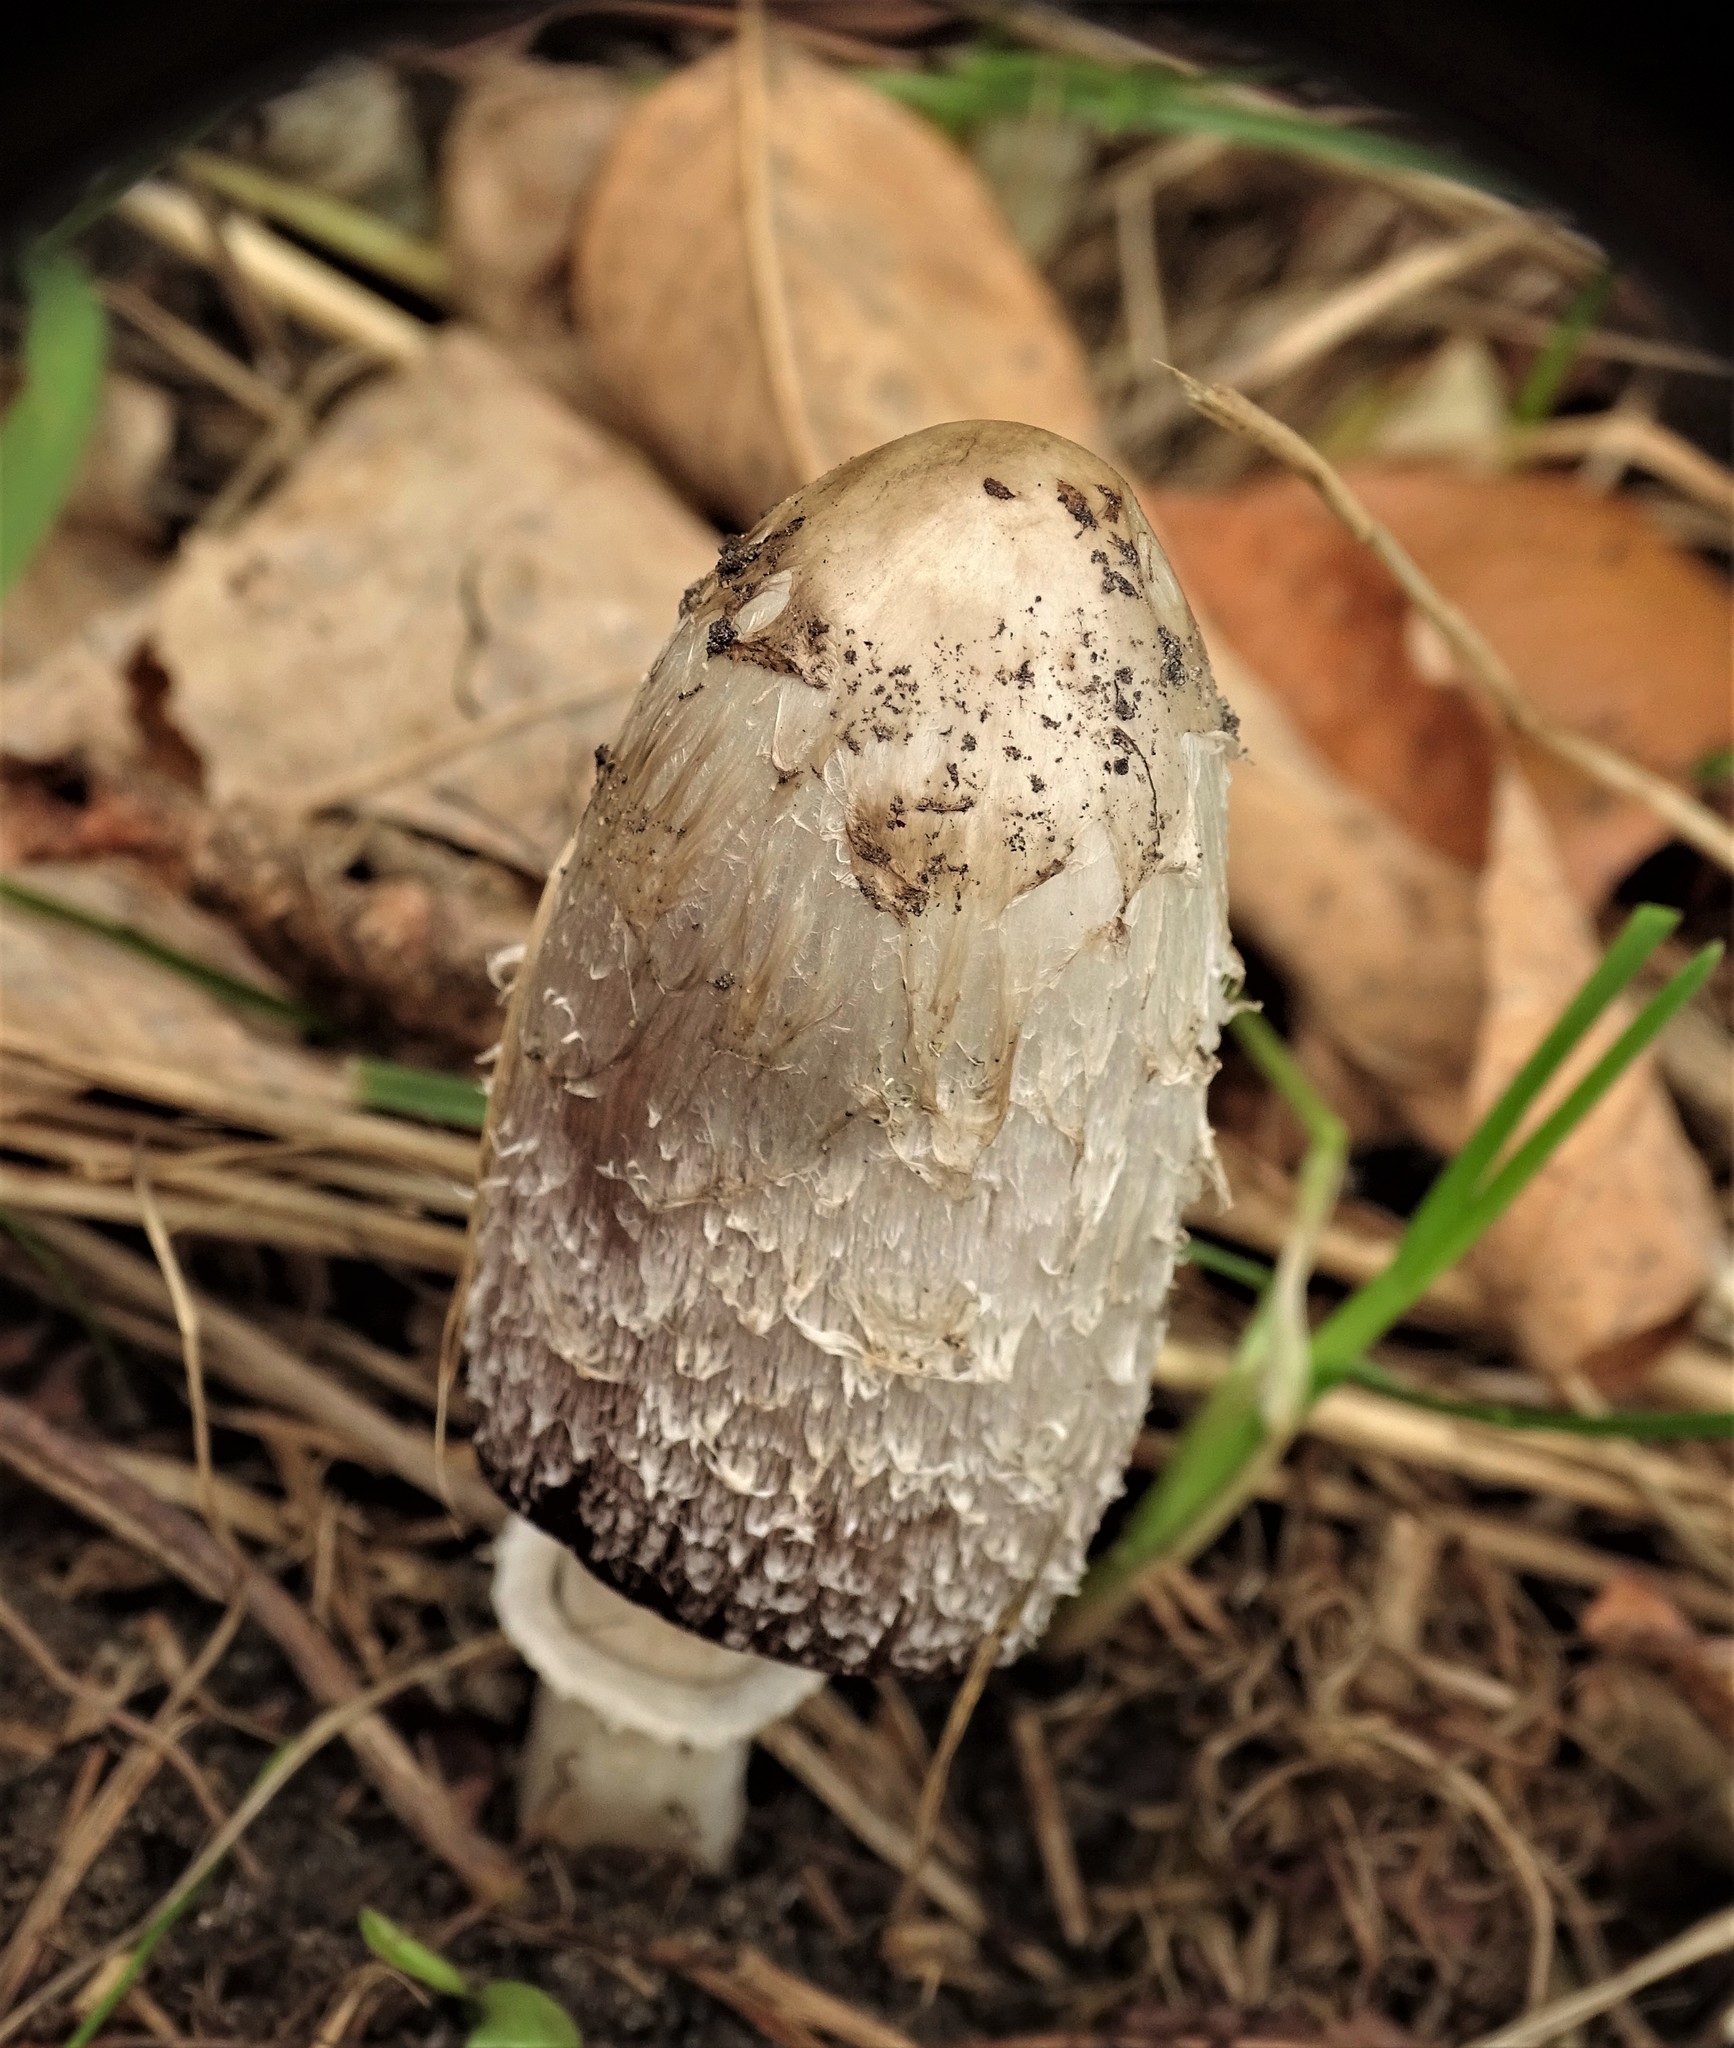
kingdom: Fungi
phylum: Basidiomycota
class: Agaricomycetes
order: Agaricales
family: Agaricaceae
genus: Coprinus
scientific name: Coprinus comatus
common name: Lawyer's wig
